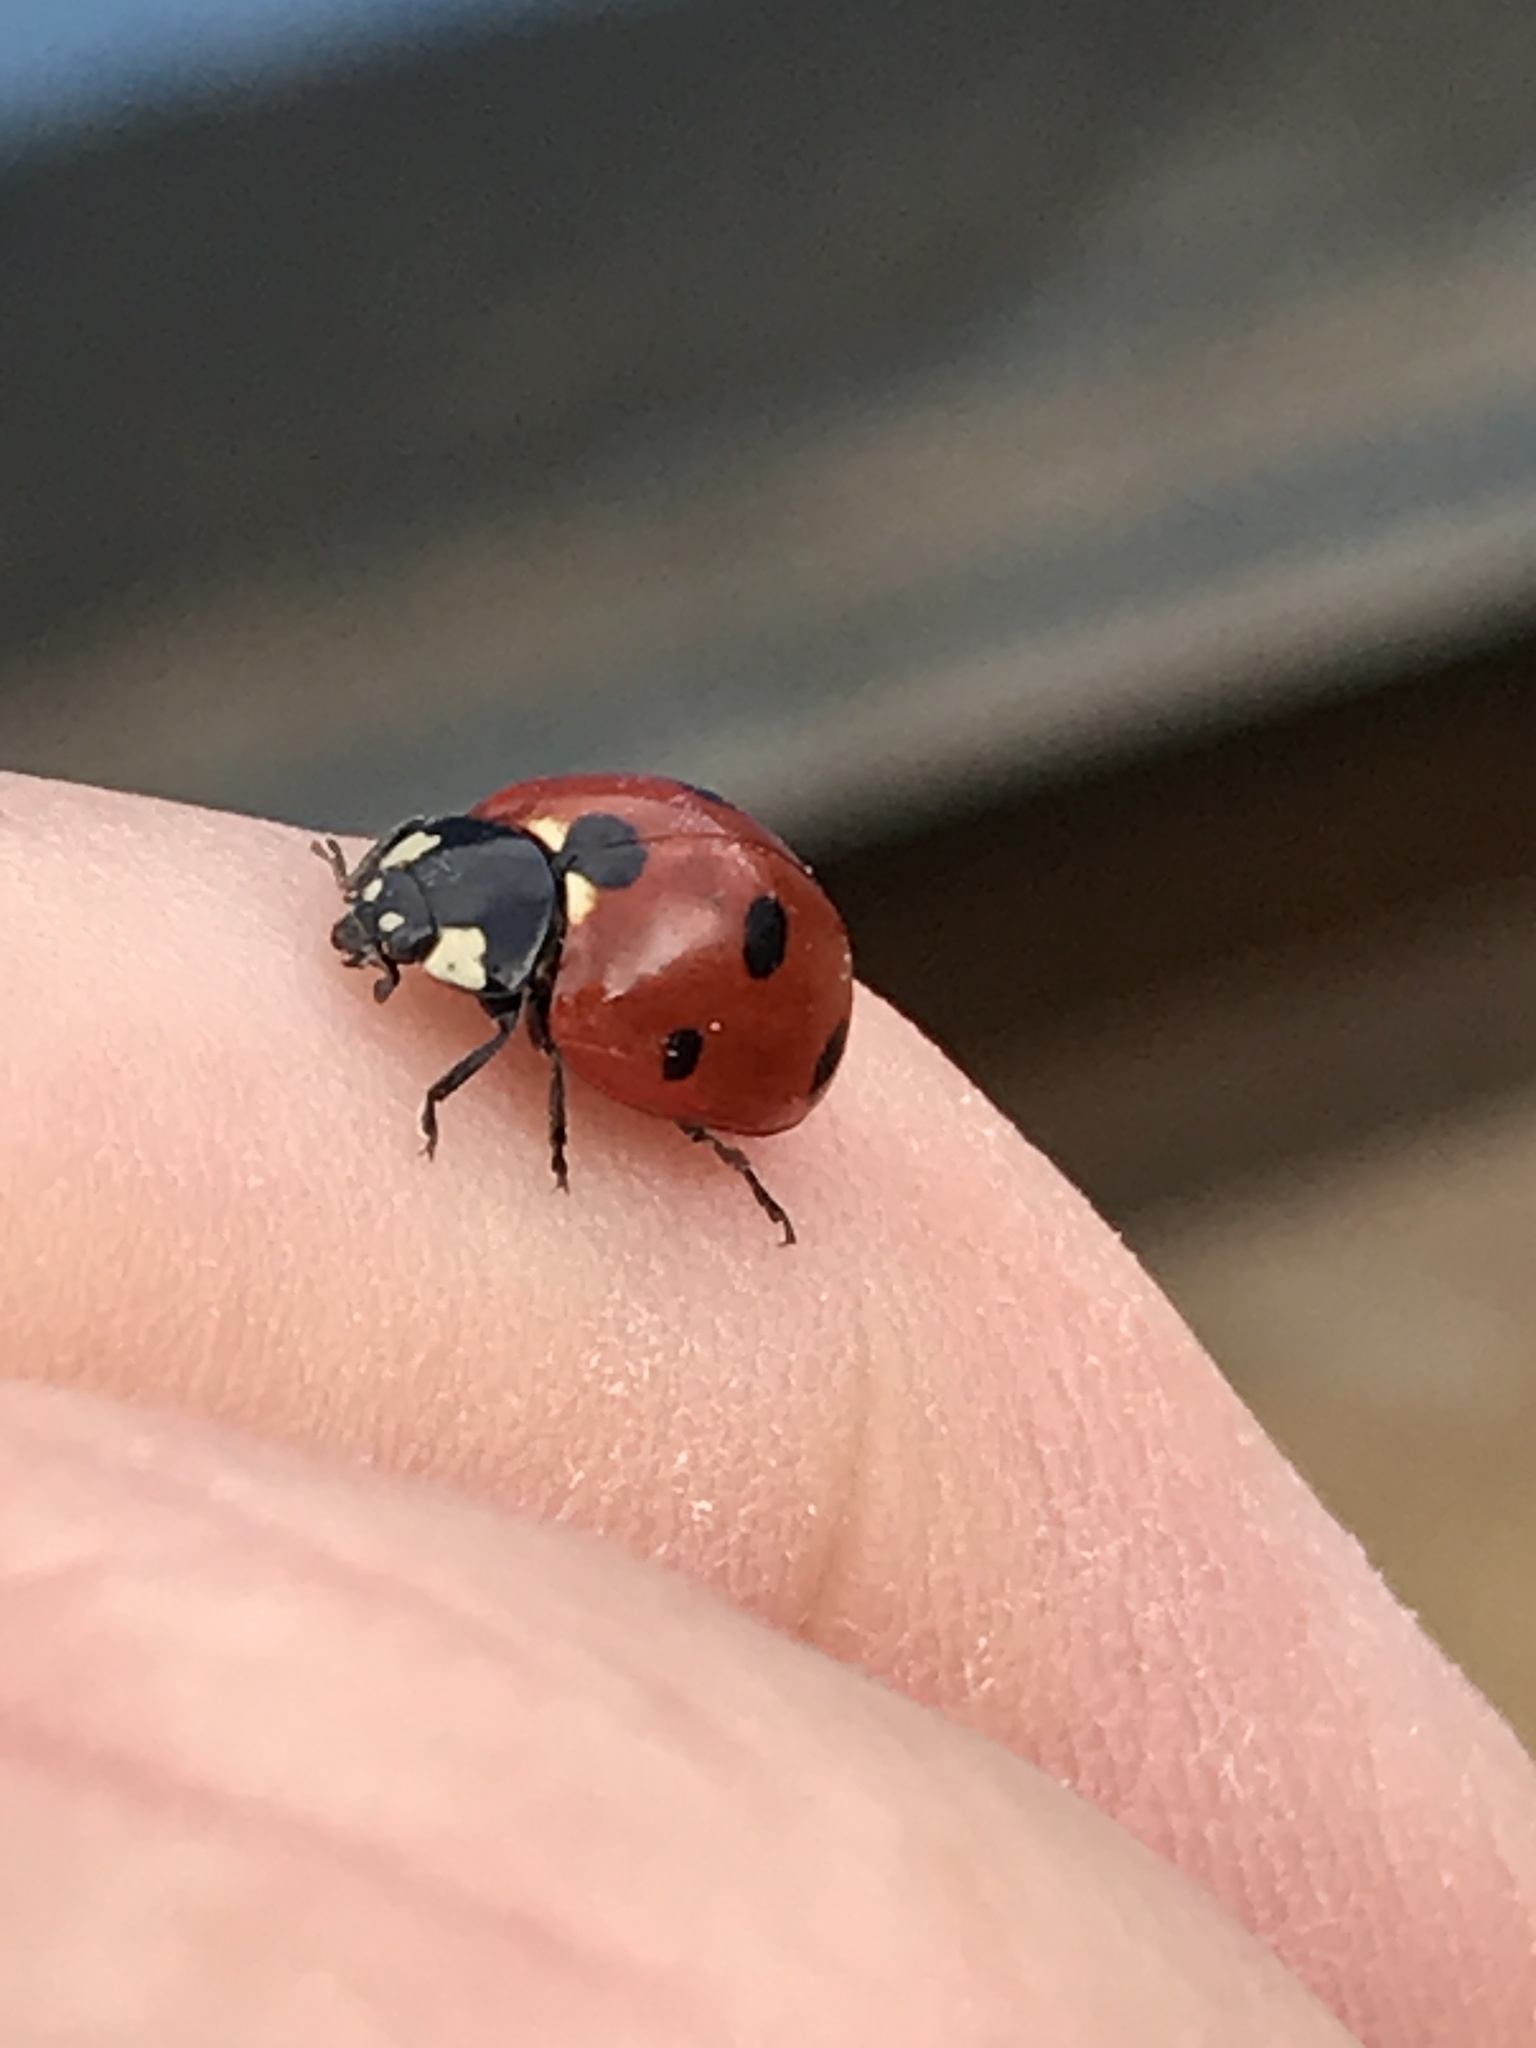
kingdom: Animalia
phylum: Arthropoda
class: Insecta
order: Coleoptera
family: Coccinellidae
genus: Coccinella
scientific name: Coccinella septempunctata
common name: Sevenspotted lady beetle
